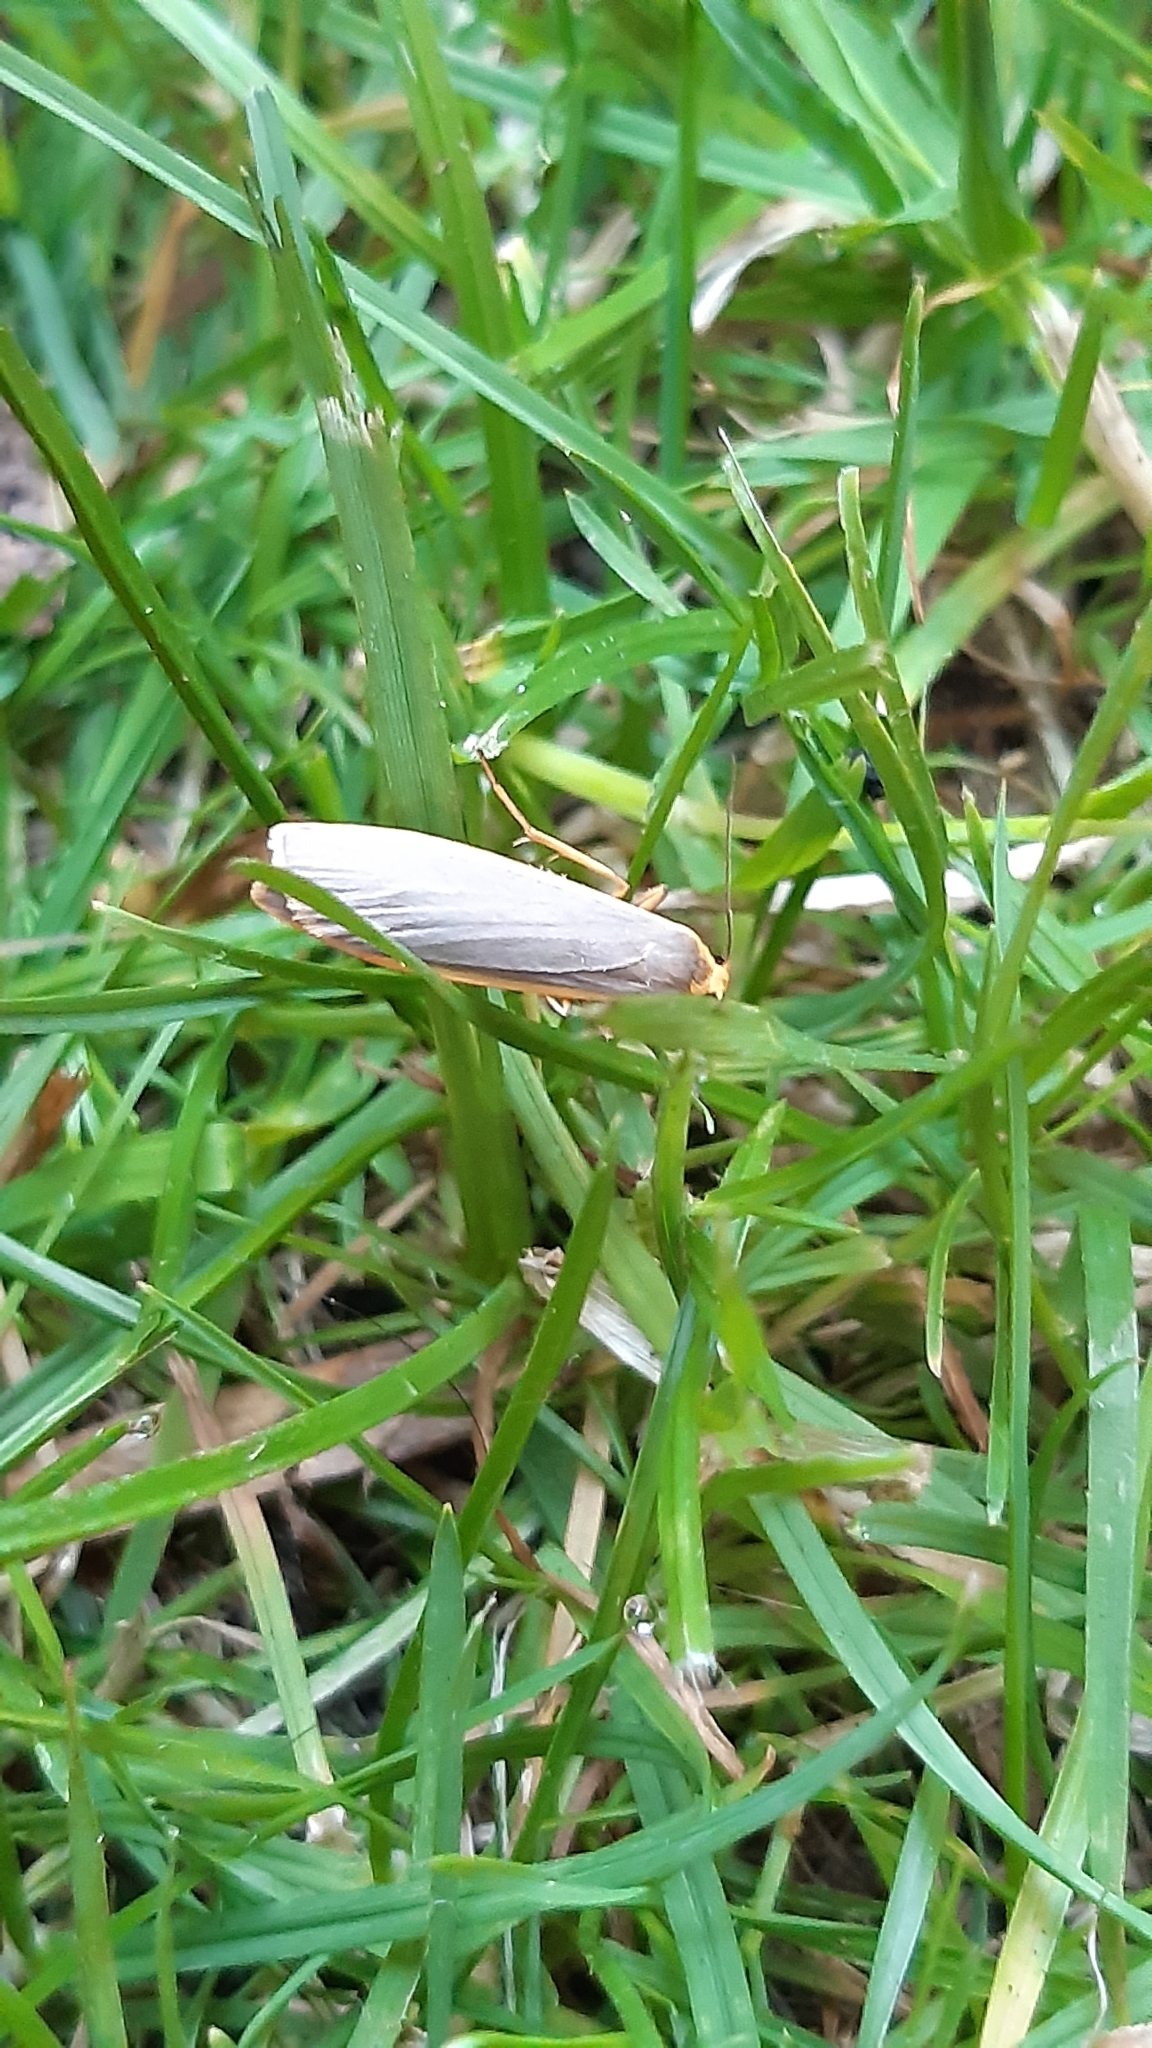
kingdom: Animalia
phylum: Arthropoda
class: Insecta
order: Lepidoptera
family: Erebidae
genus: Nyea
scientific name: Nyea lurideola
